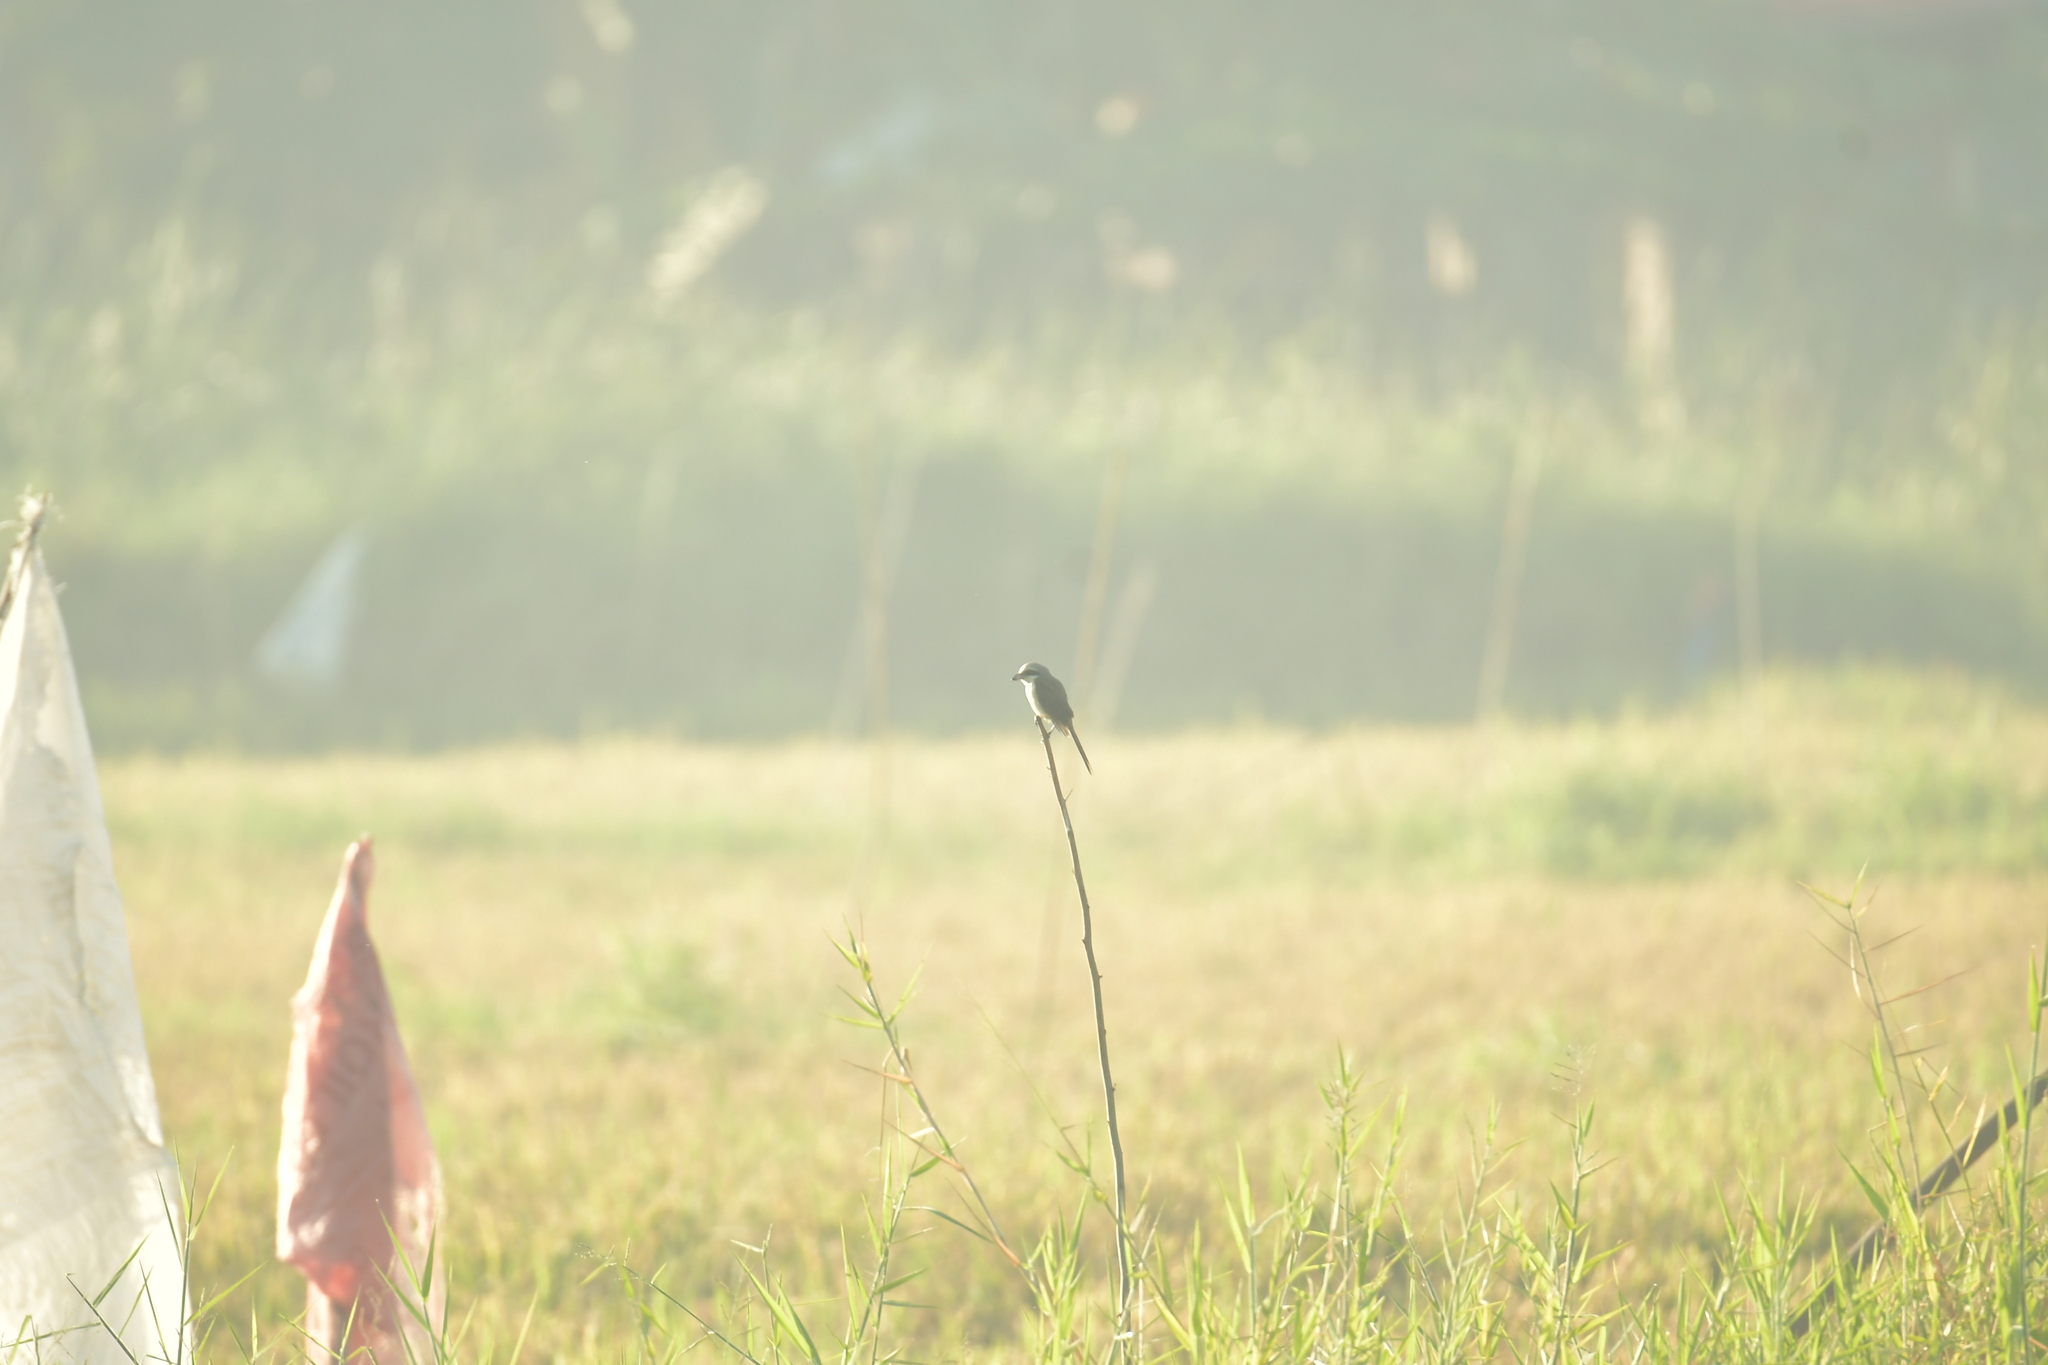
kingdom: Animalia
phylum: Chordata
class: Aves
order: Passeriformes
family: Laniidae
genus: Lanius
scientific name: Lanius cristatus
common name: Brown shrike
